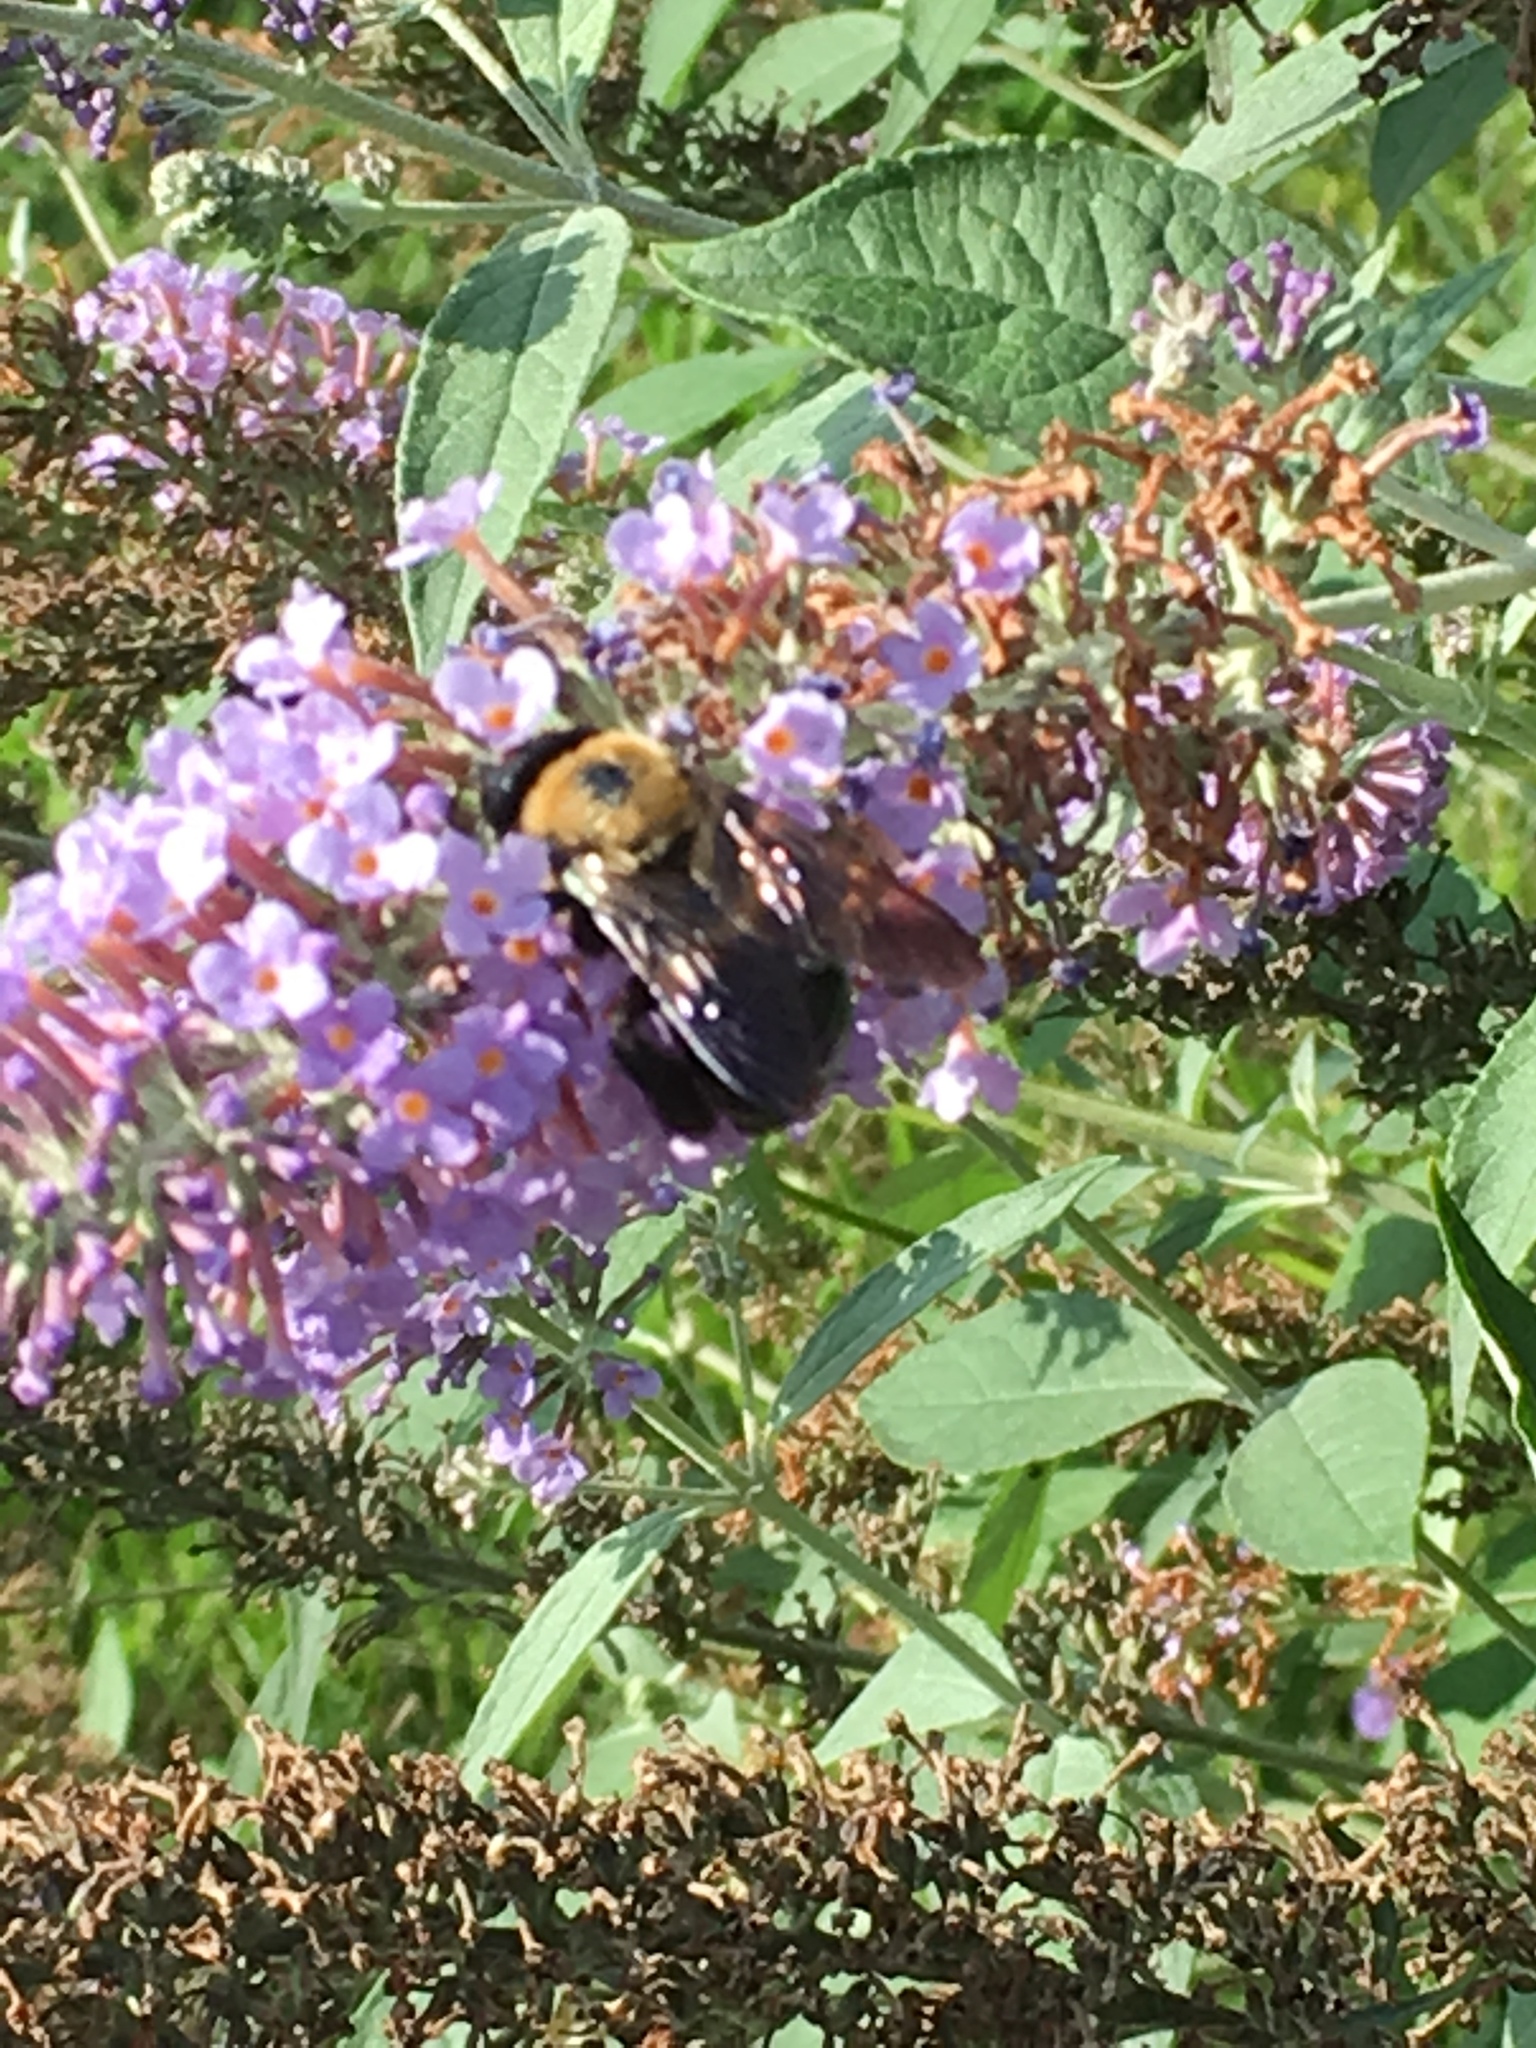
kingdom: Animalia
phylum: Arthropoda
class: Insecta
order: Hymenoptera
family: Apidae
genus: Xylocopa
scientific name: Xylocopa virginica
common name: Carpenter bee
